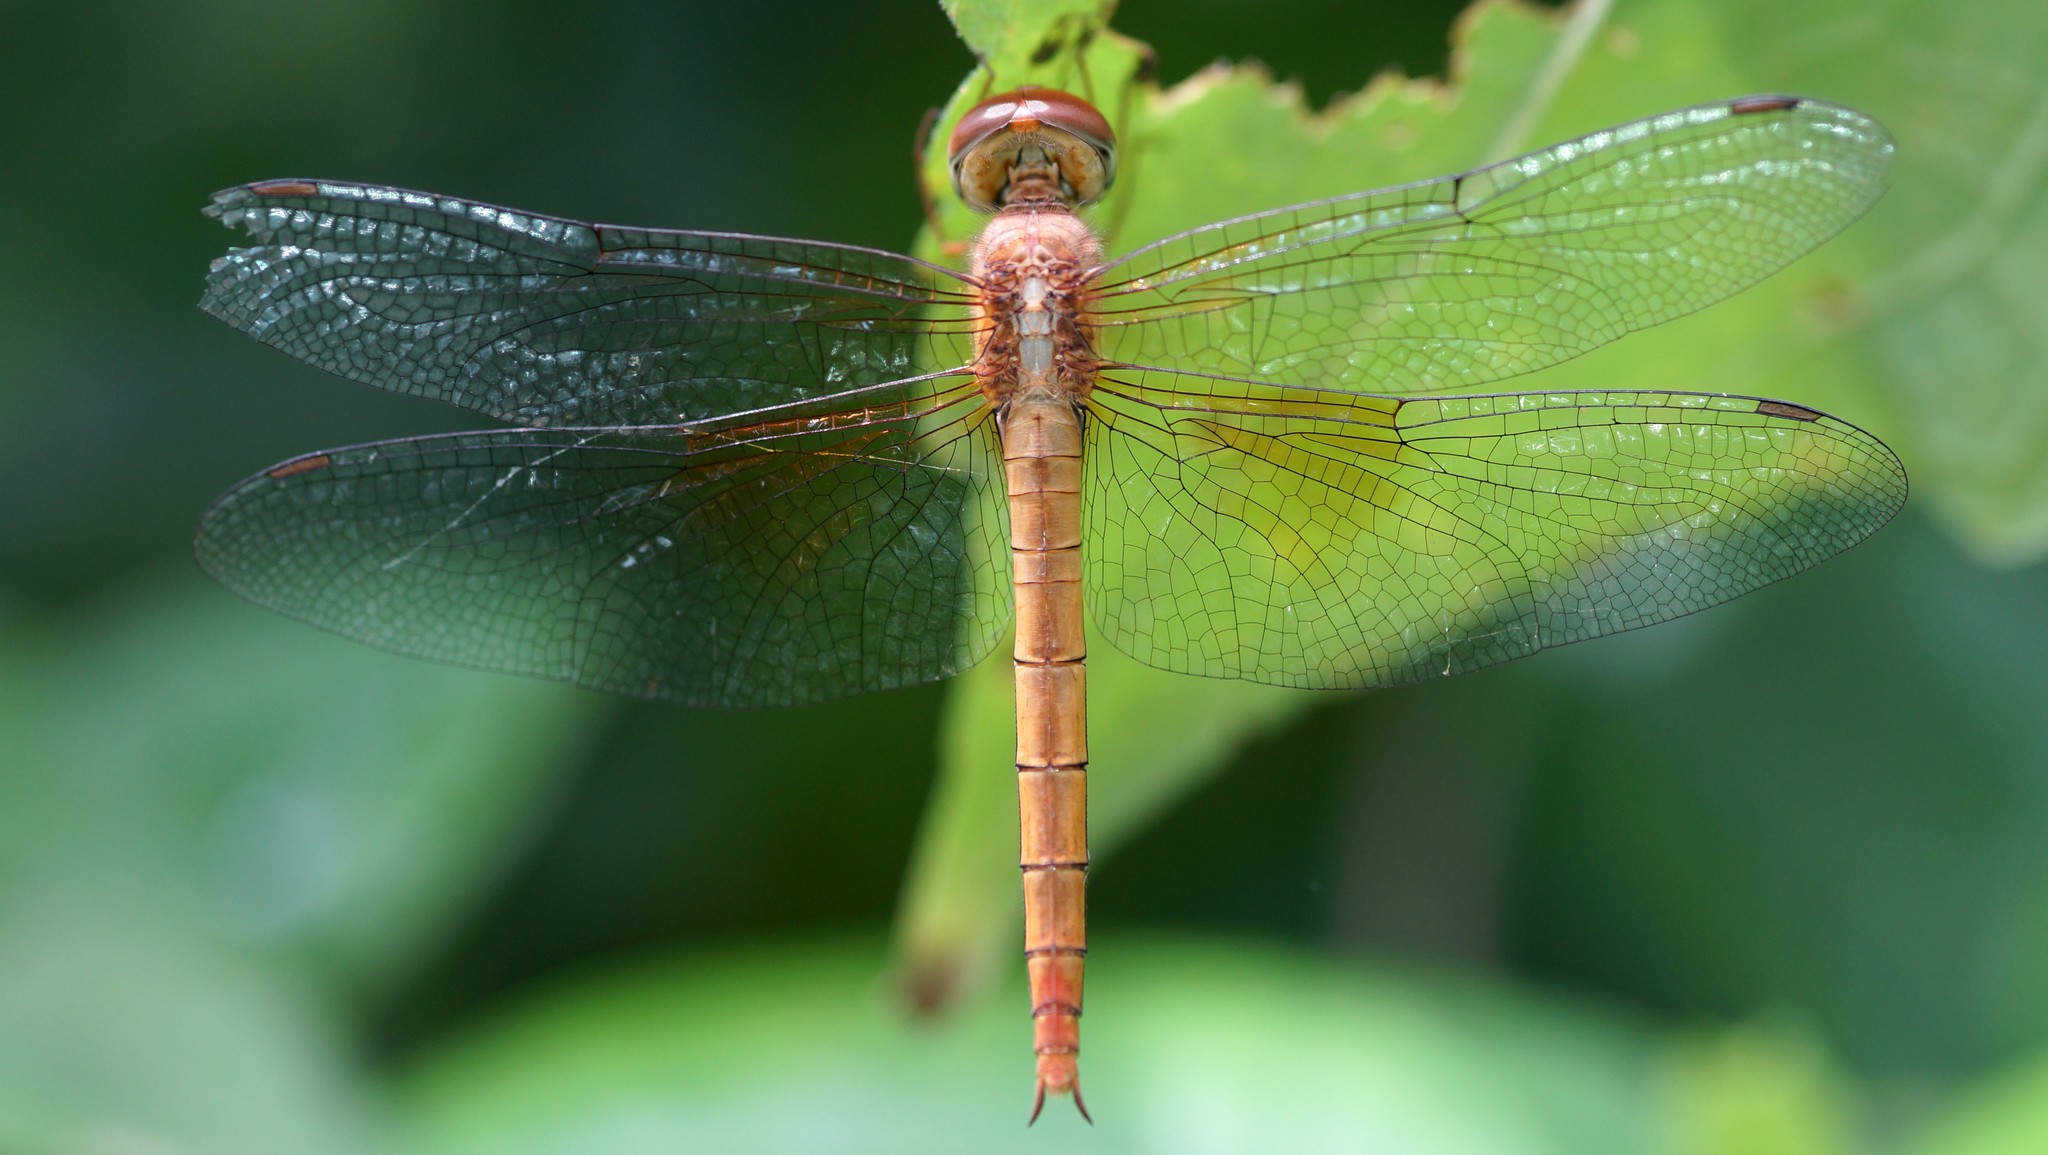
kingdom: Animalia
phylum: Arthropoda
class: Insecta
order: Odonata
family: Libellulidae
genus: Tholymis
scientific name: Tholymis tillarga
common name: Coral-tailed cloud wing
